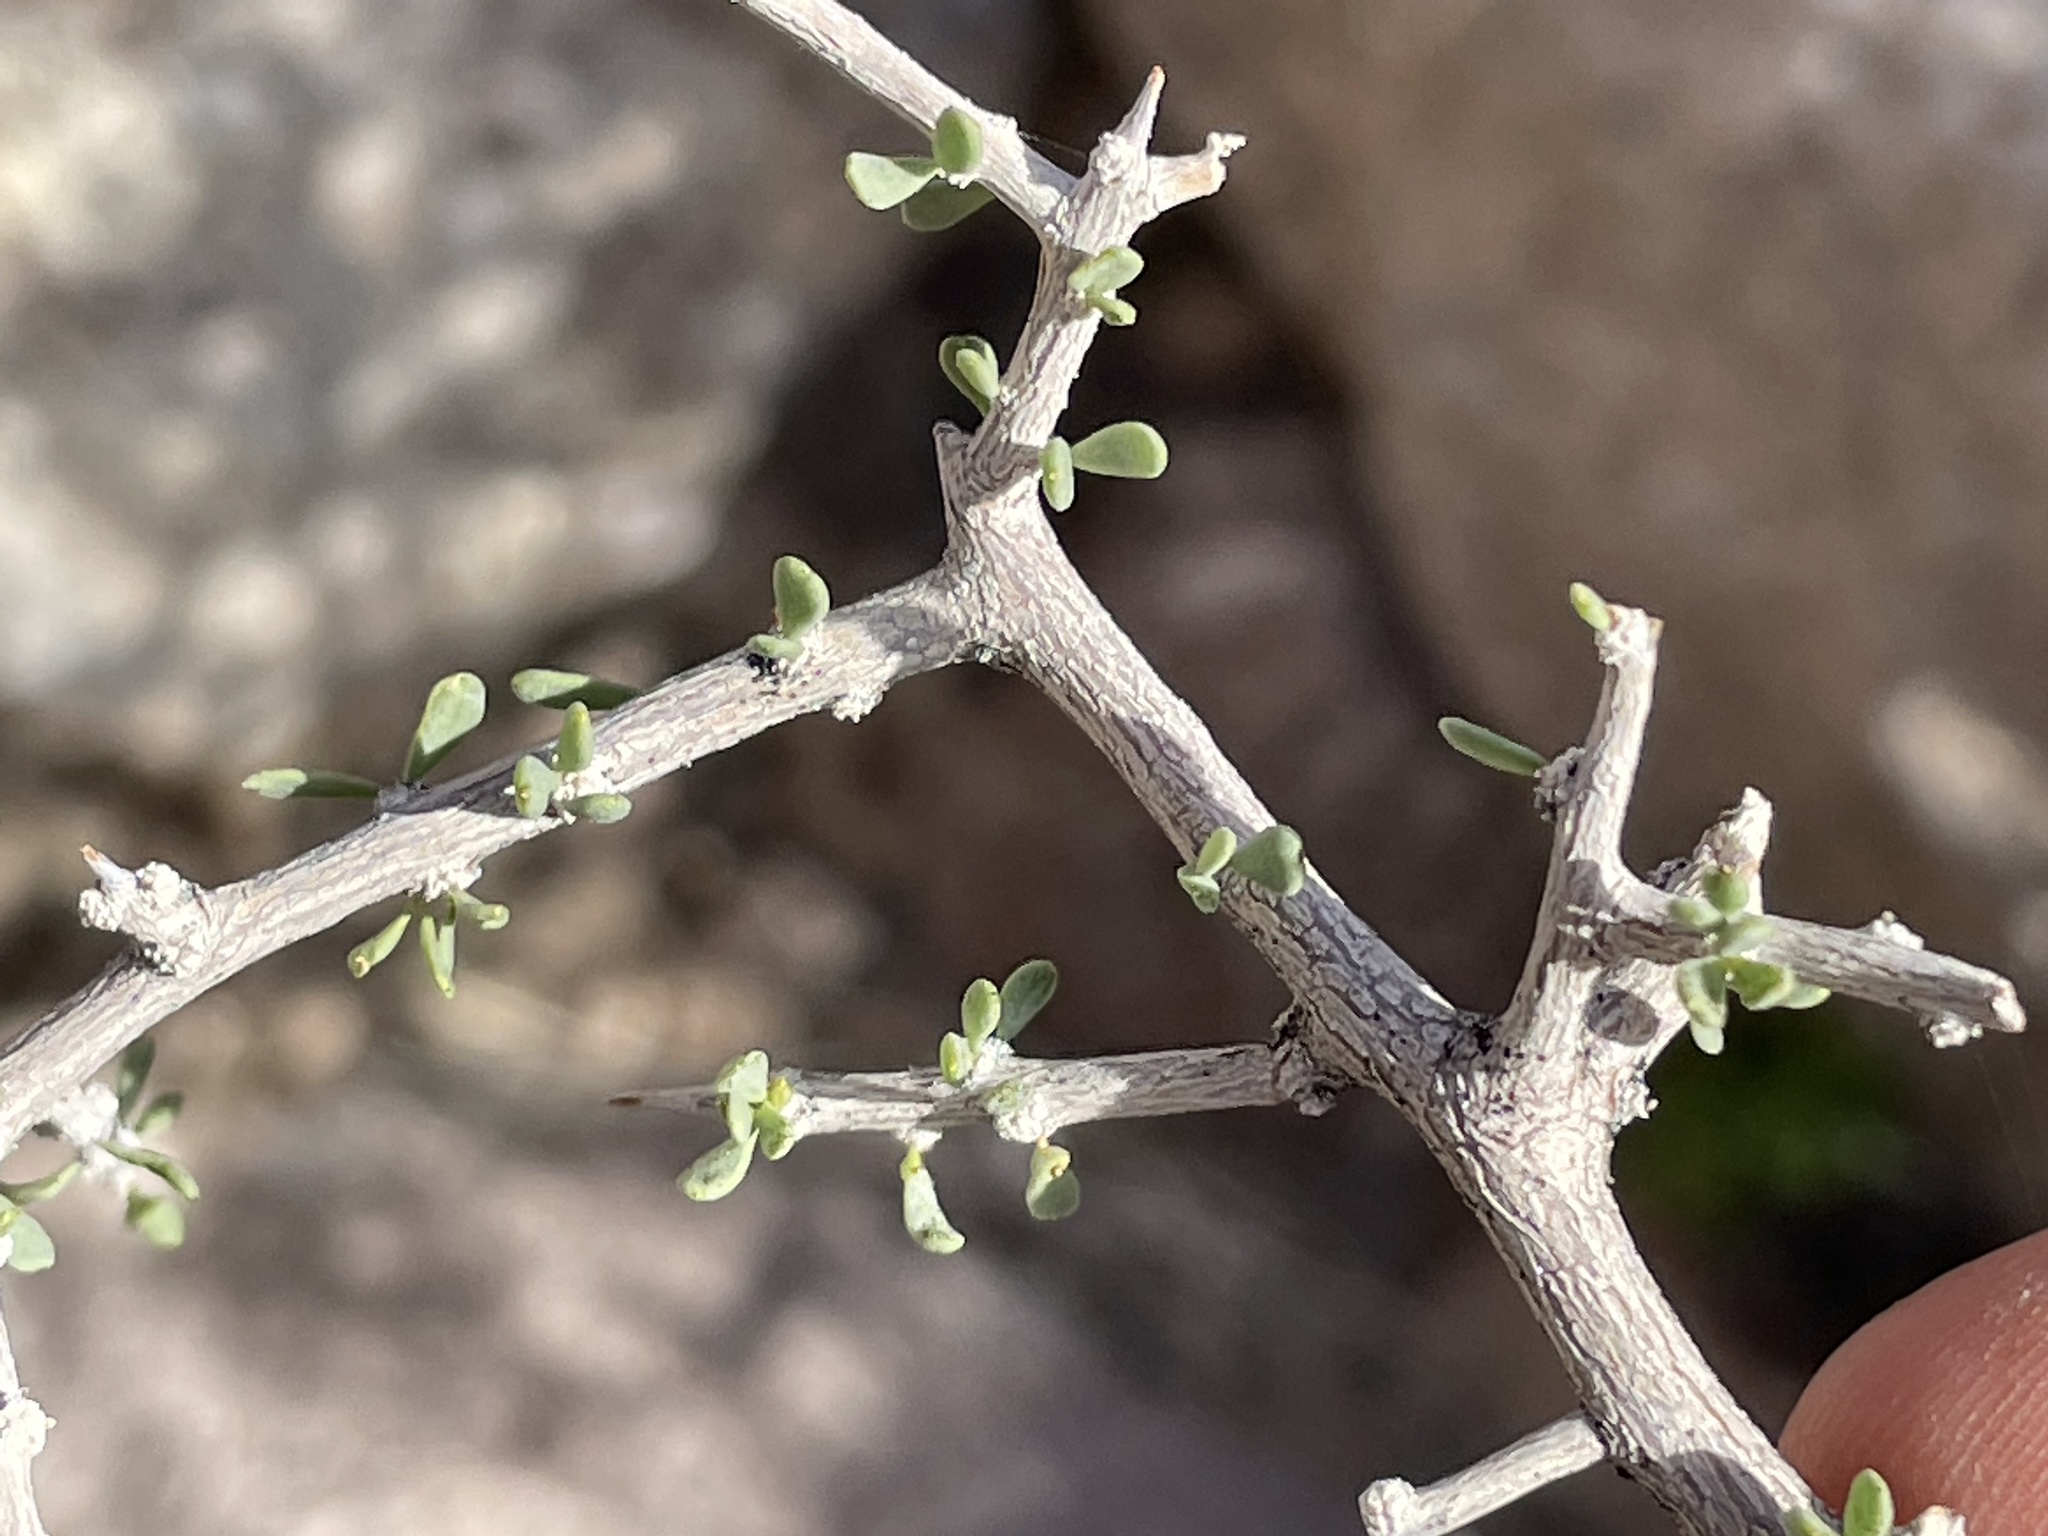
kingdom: Plantae
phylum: Tracheophyta
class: Magnoliopsida
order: Solanales
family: Solanaceae
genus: Lycium
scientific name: Lycium andersonii
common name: Water-jacket
